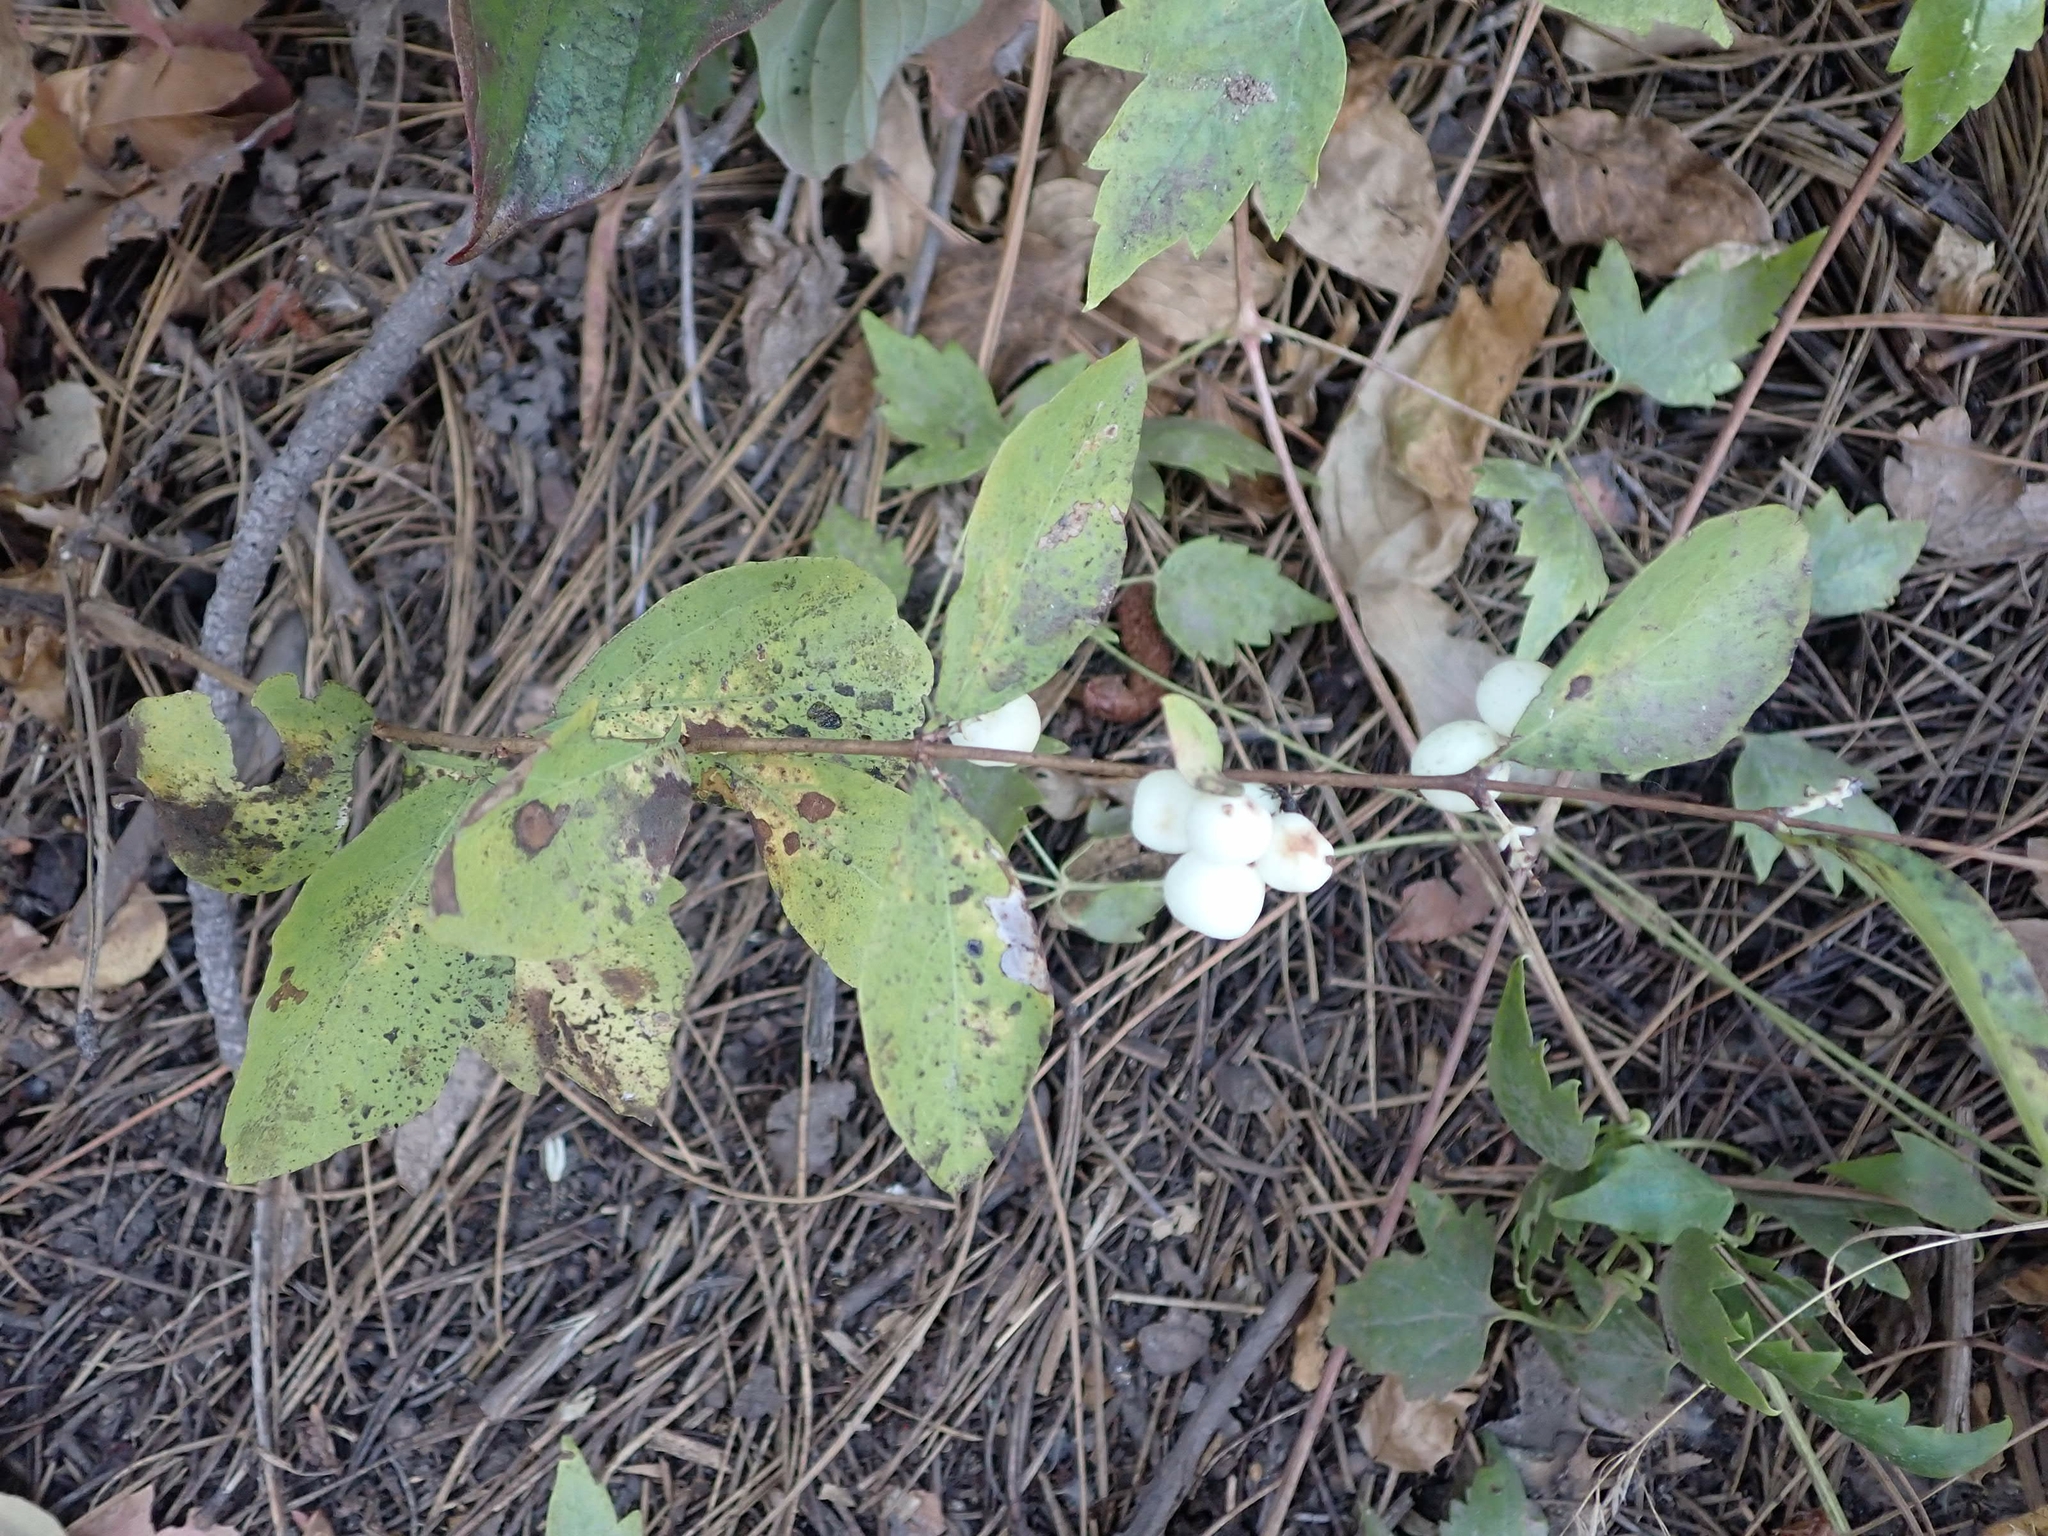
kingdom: Plantae
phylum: Tracheophyta
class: Magnoliopsida
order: Dipsacales
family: Caprifoliaceae
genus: Symphoricarpos
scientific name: Symphoricarpos albus
